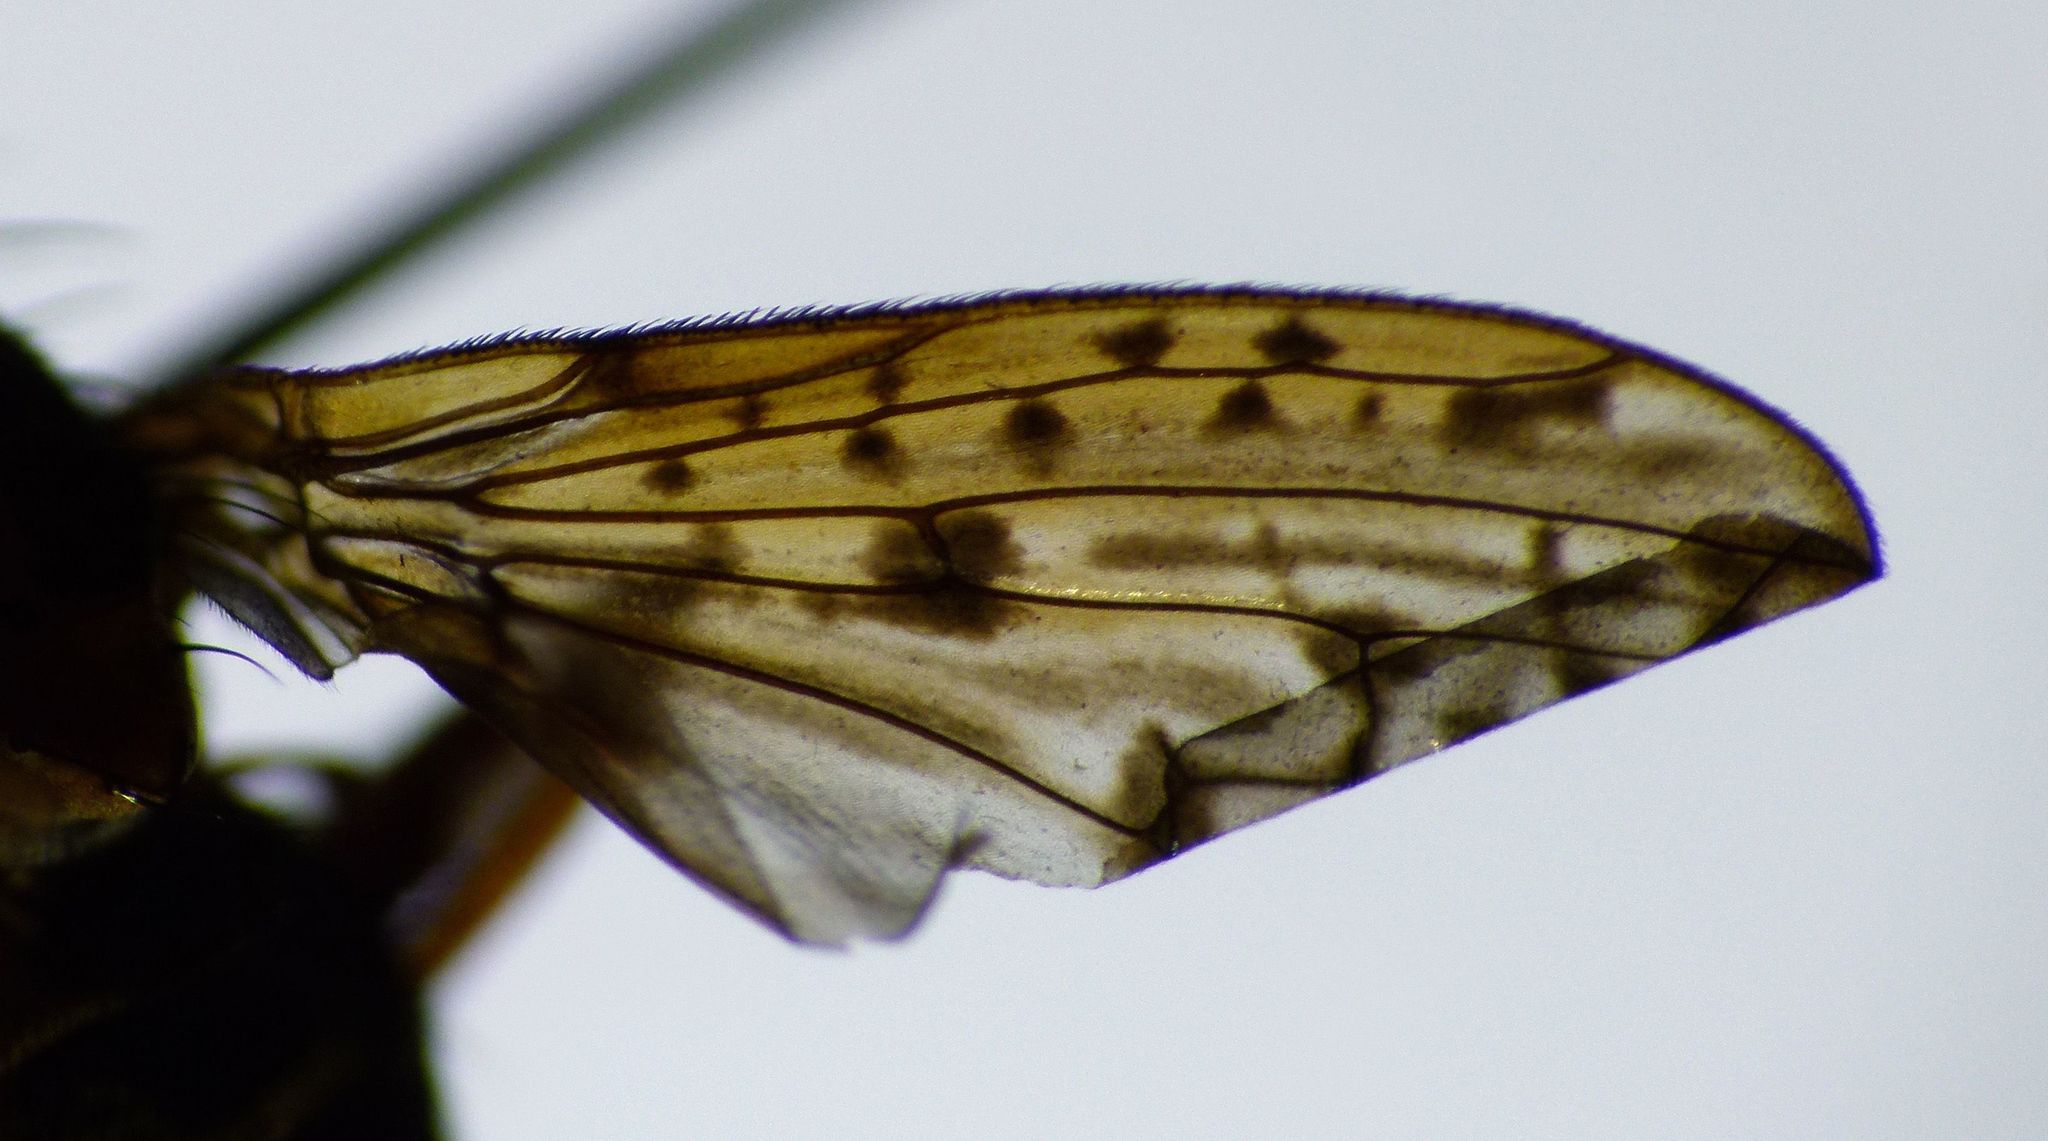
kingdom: Animalia
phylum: Arthropoda
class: Insecta
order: Diptera
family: Sciomyzidae
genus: Neolimnia
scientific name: Neolimnia tranquilla
